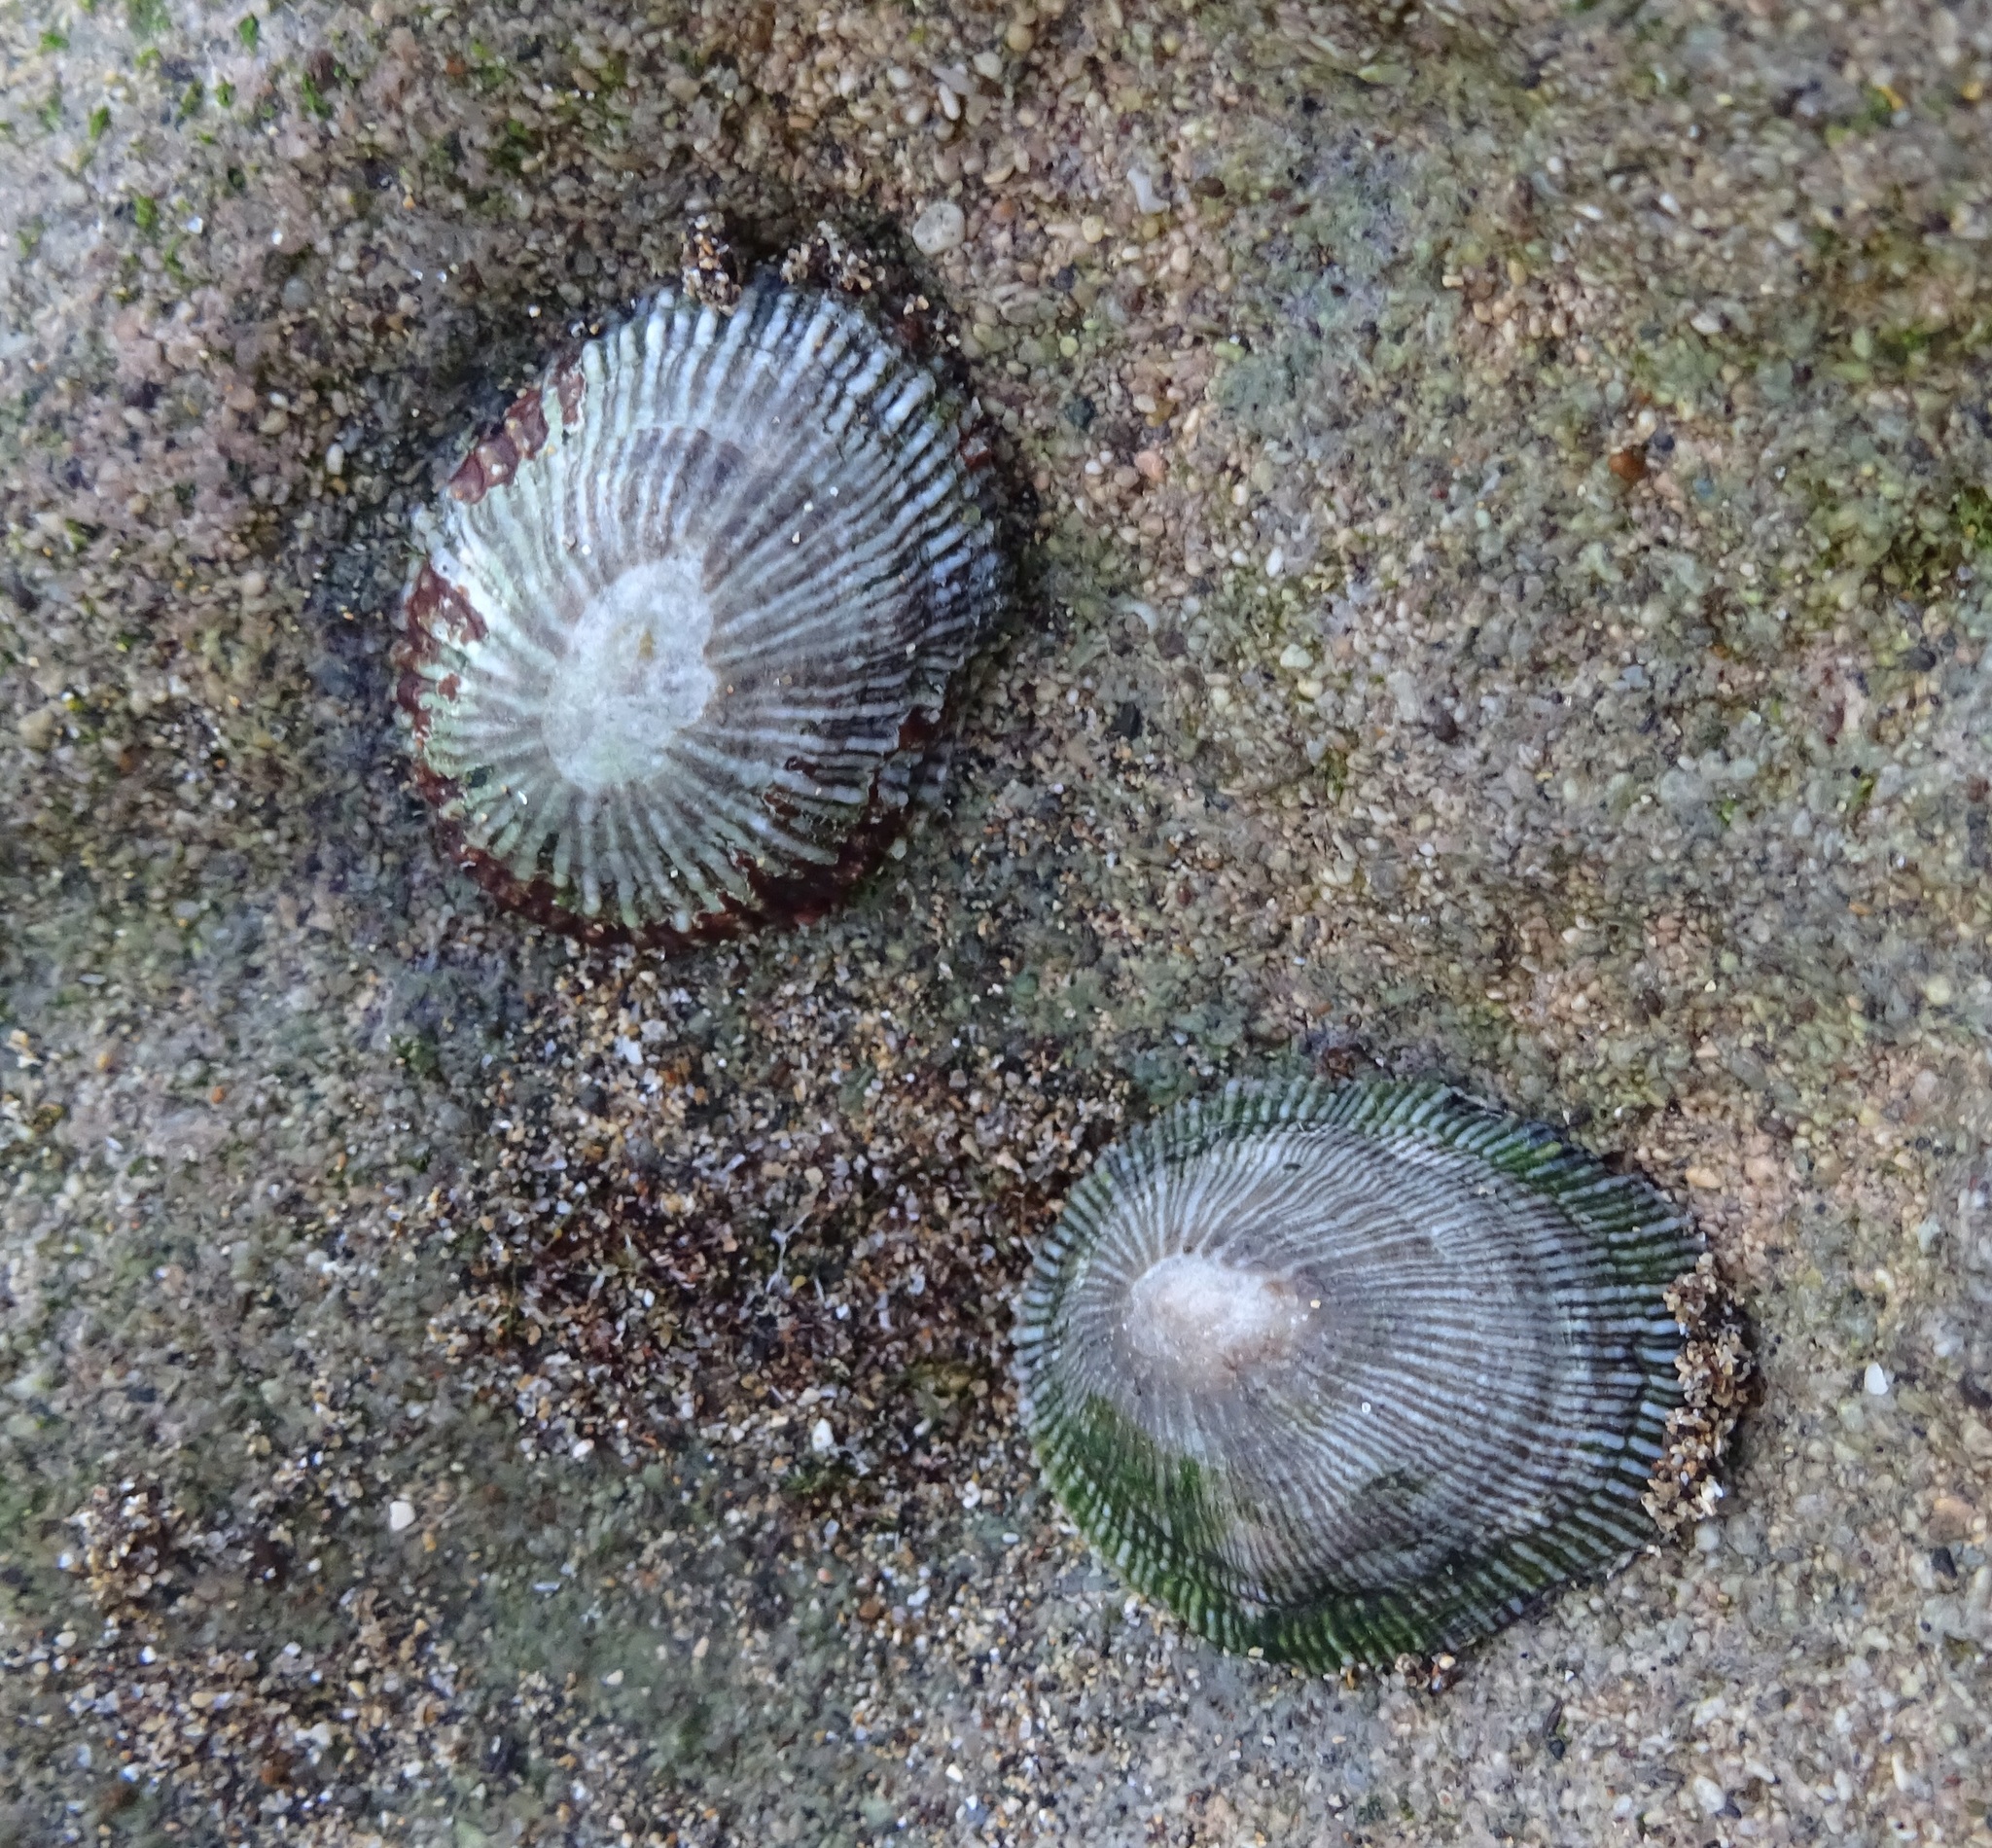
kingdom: Animalia
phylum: Mollusca
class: Gastropoda
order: Siphonariida
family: Siphonariidae
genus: Siphonaria
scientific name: Siphonaria pectinata
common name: Striped false limpet
